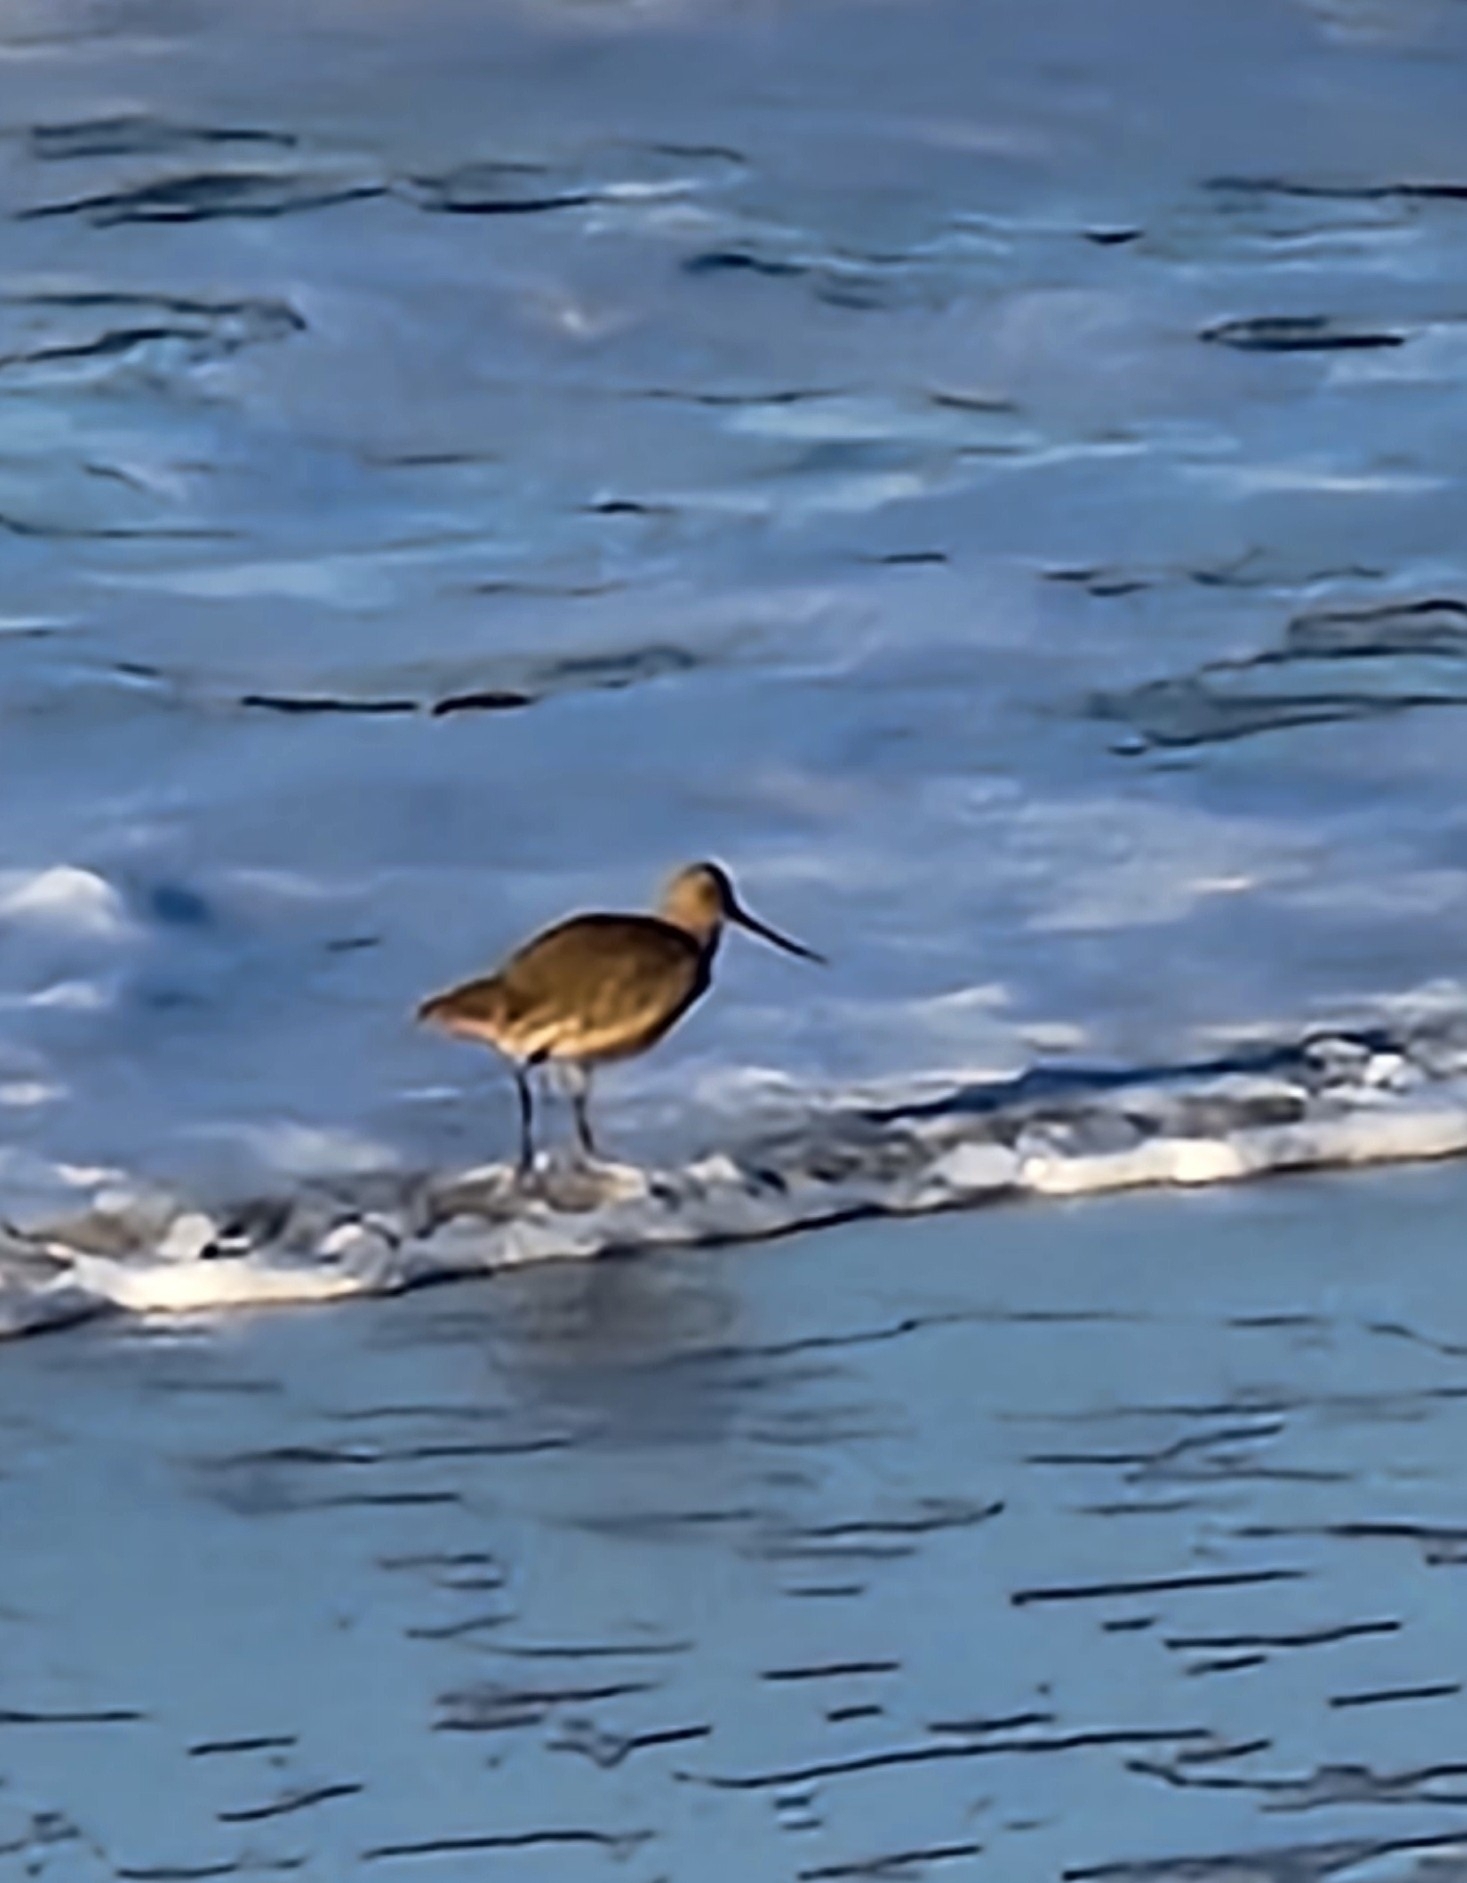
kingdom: Animalia
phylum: Chordata
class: Aves
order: Charadriiformes
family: Scolopacidae
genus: Limosa
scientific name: Limosa fedoa
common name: Marbled godwit
